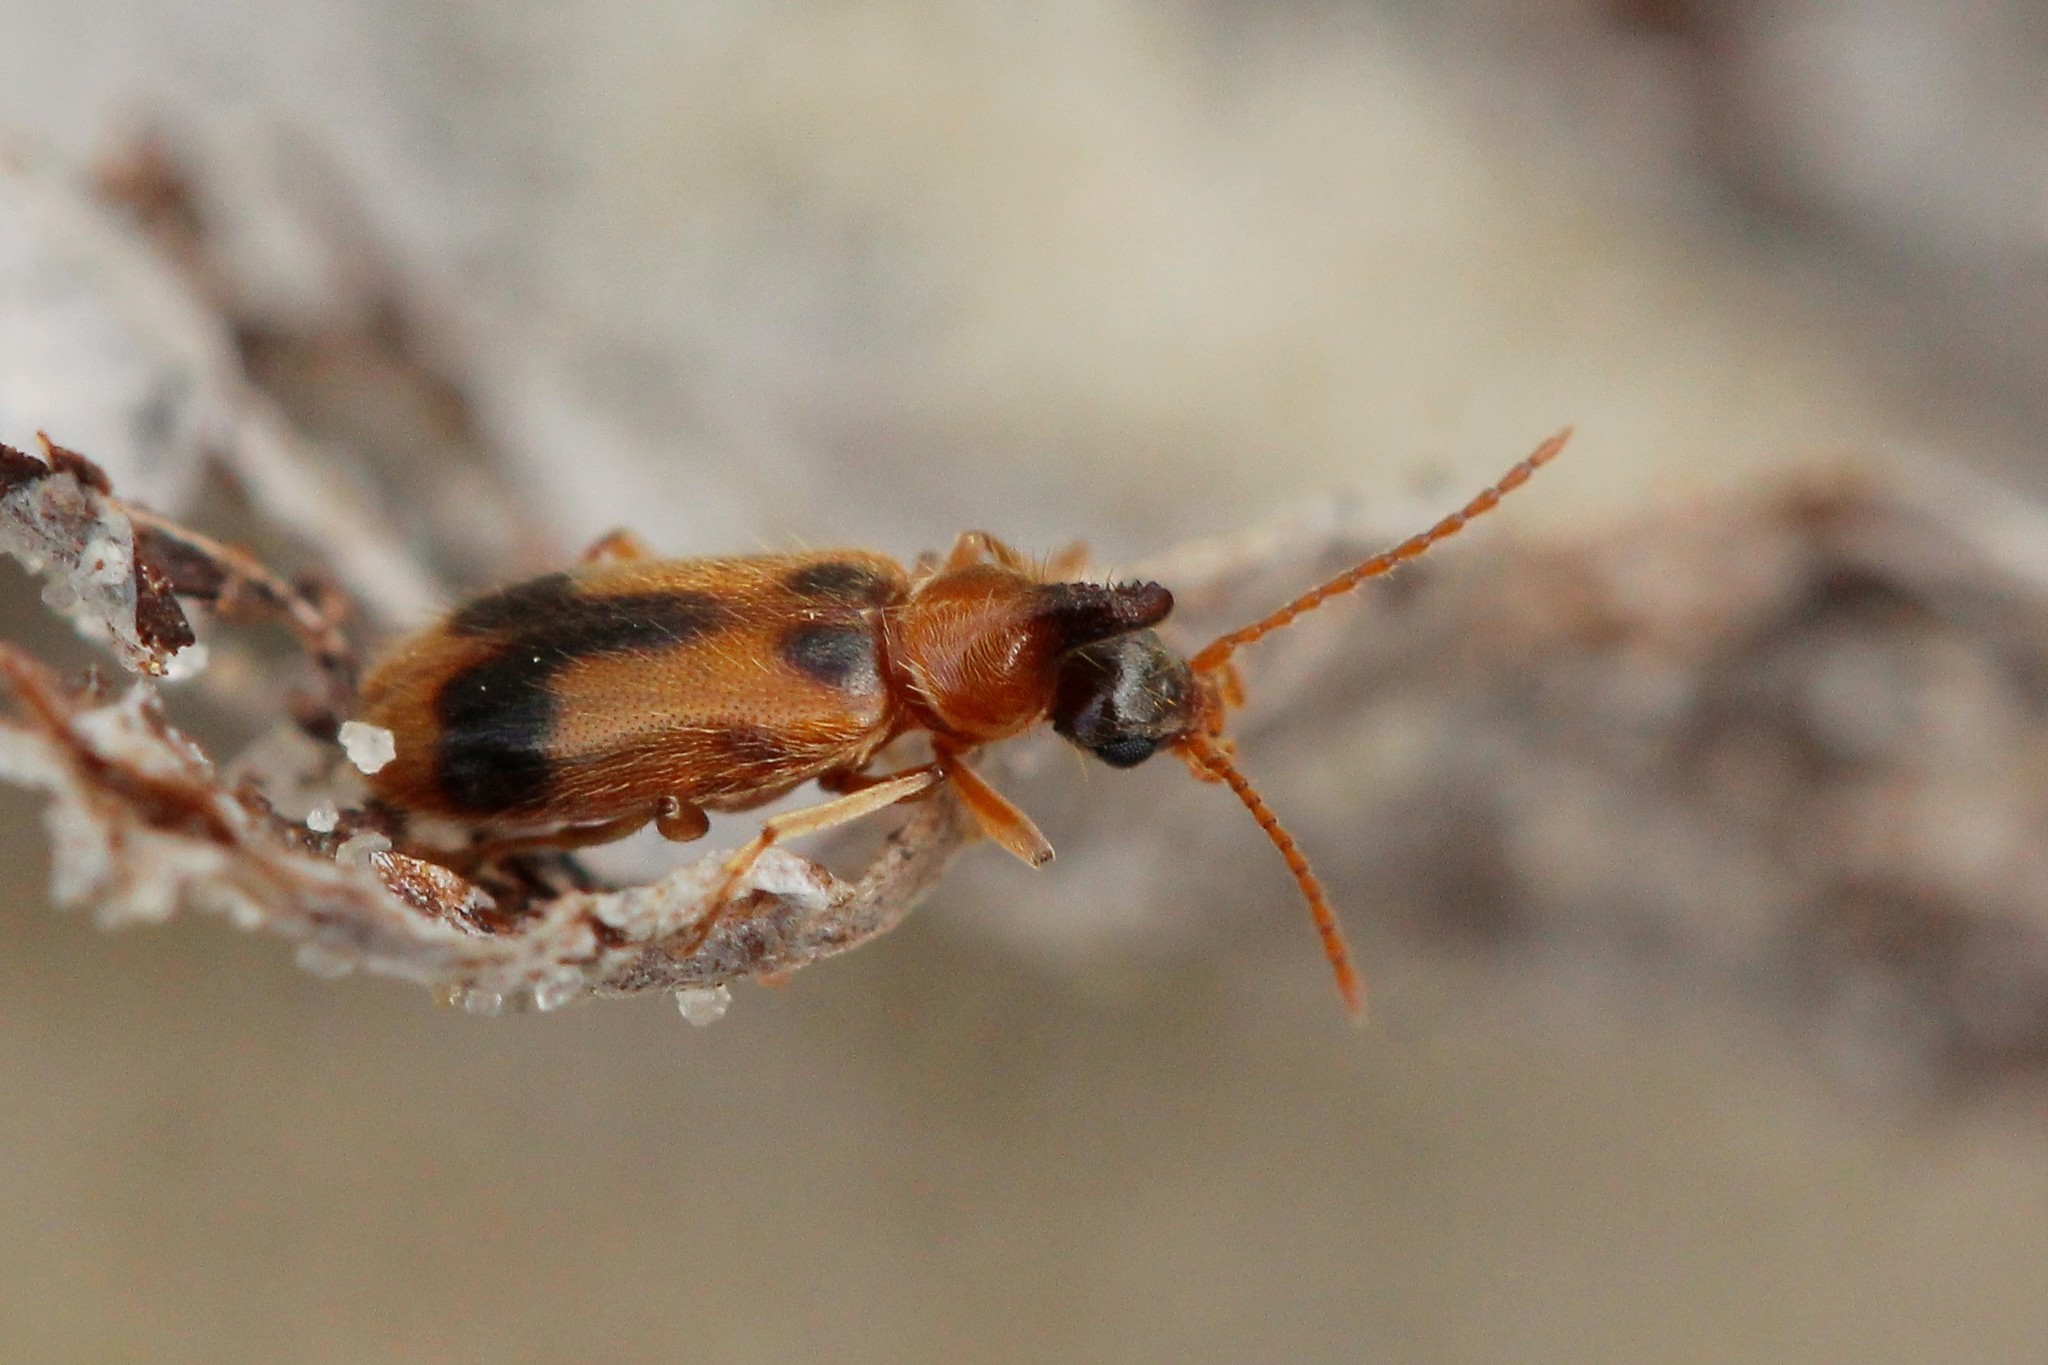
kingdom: Animalia
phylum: Arthropoda
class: Insecta
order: Coleoptera
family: Anthicidae
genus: Notoxus
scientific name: Notoxus monoceros
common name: Monoceros beetle
